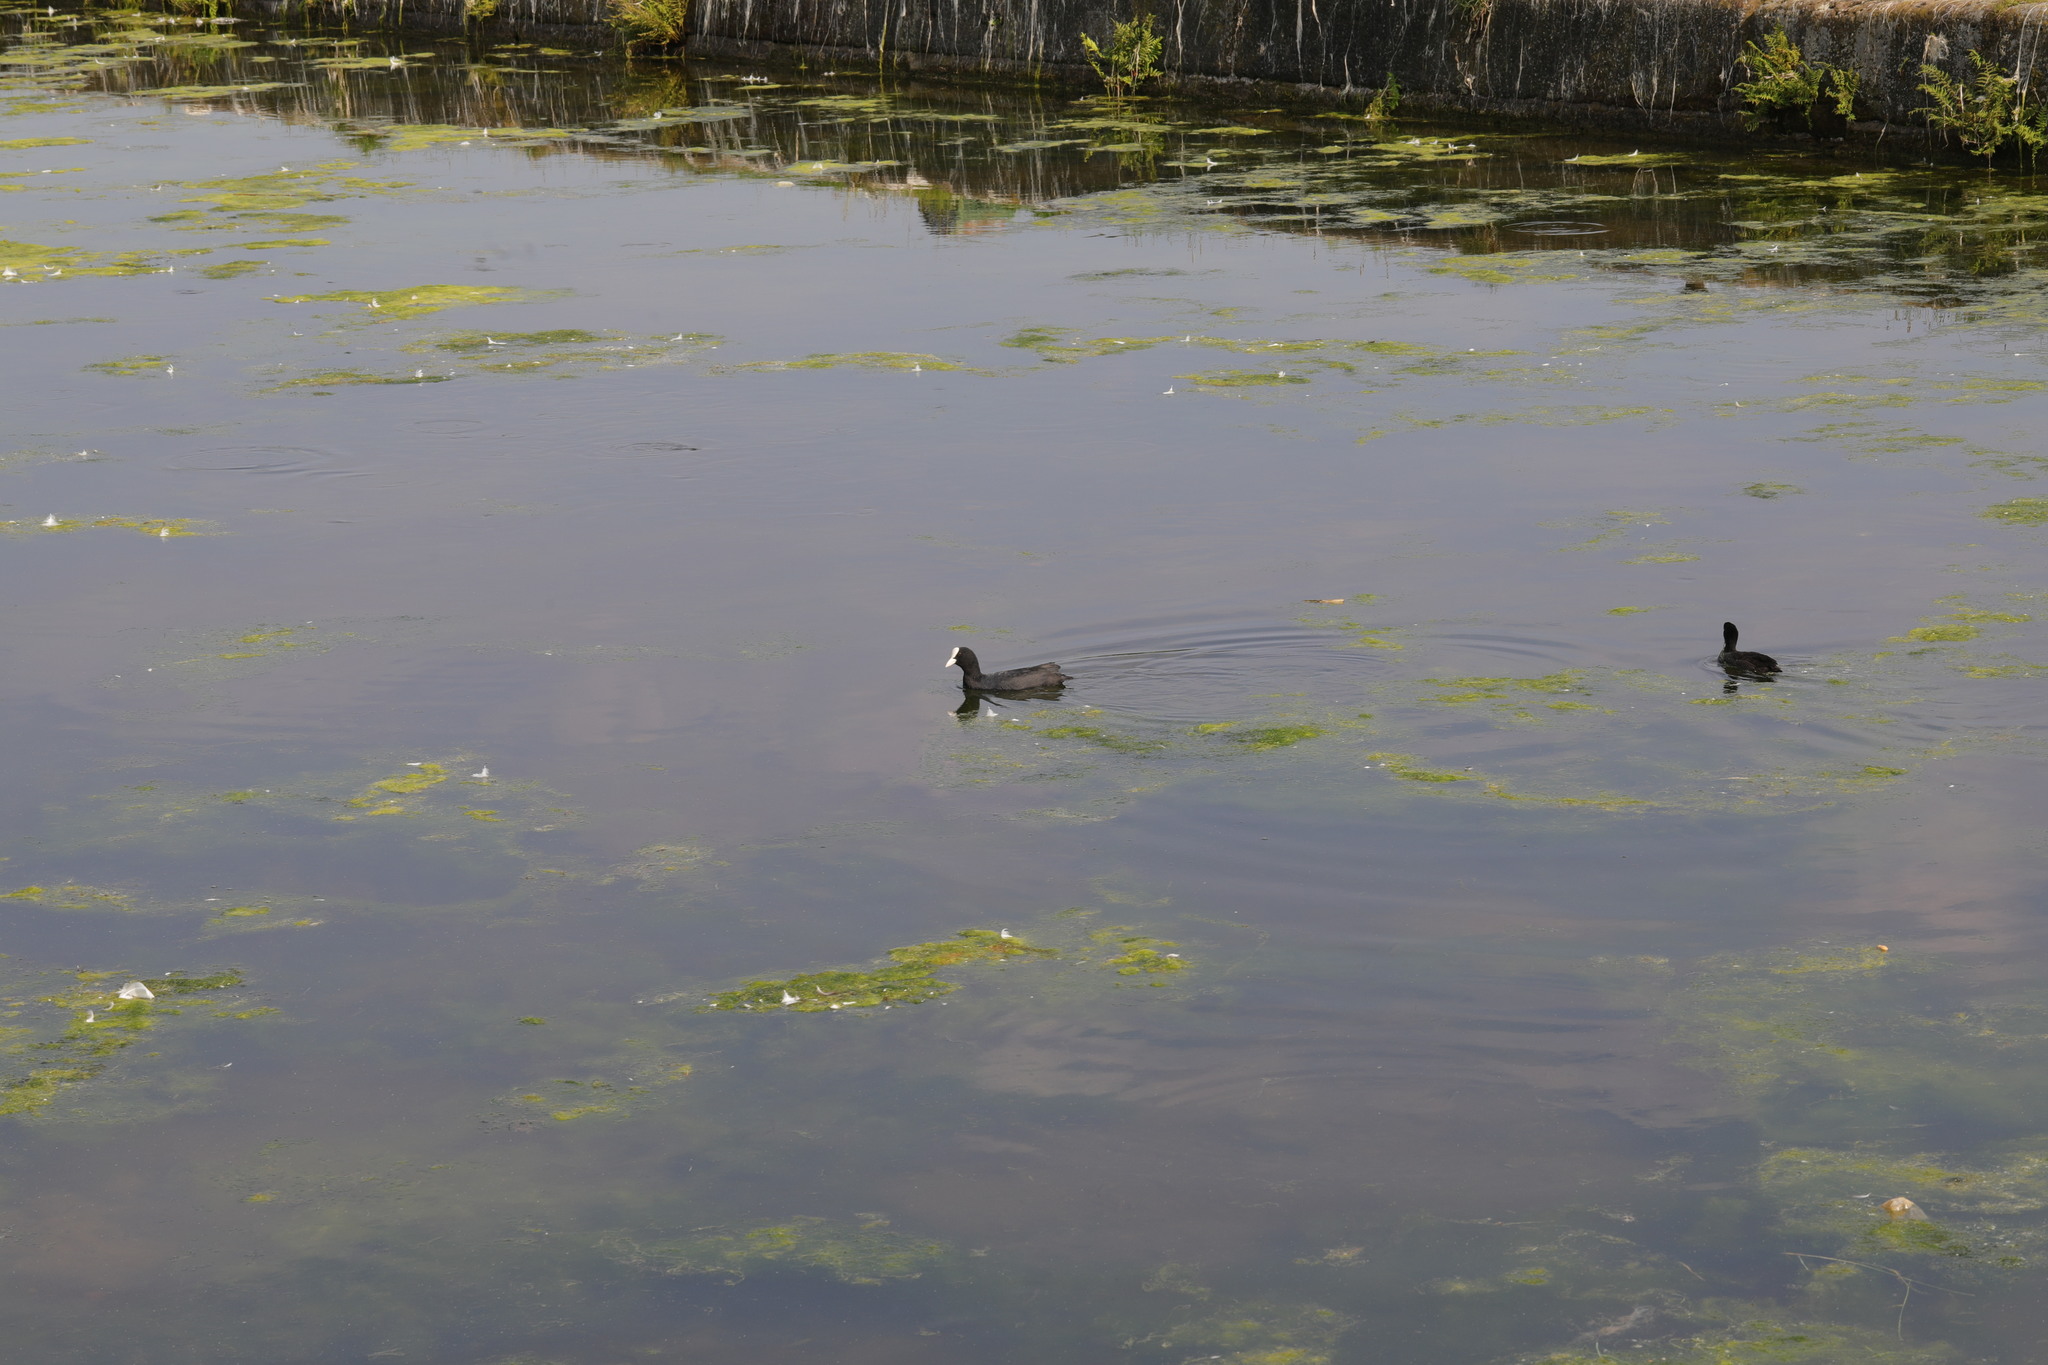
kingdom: Animalia
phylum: Chordata
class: Aves
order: Gruiformes
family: Rallidae
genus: Fulica
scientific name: Fulica atra
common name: Eurasian coot
